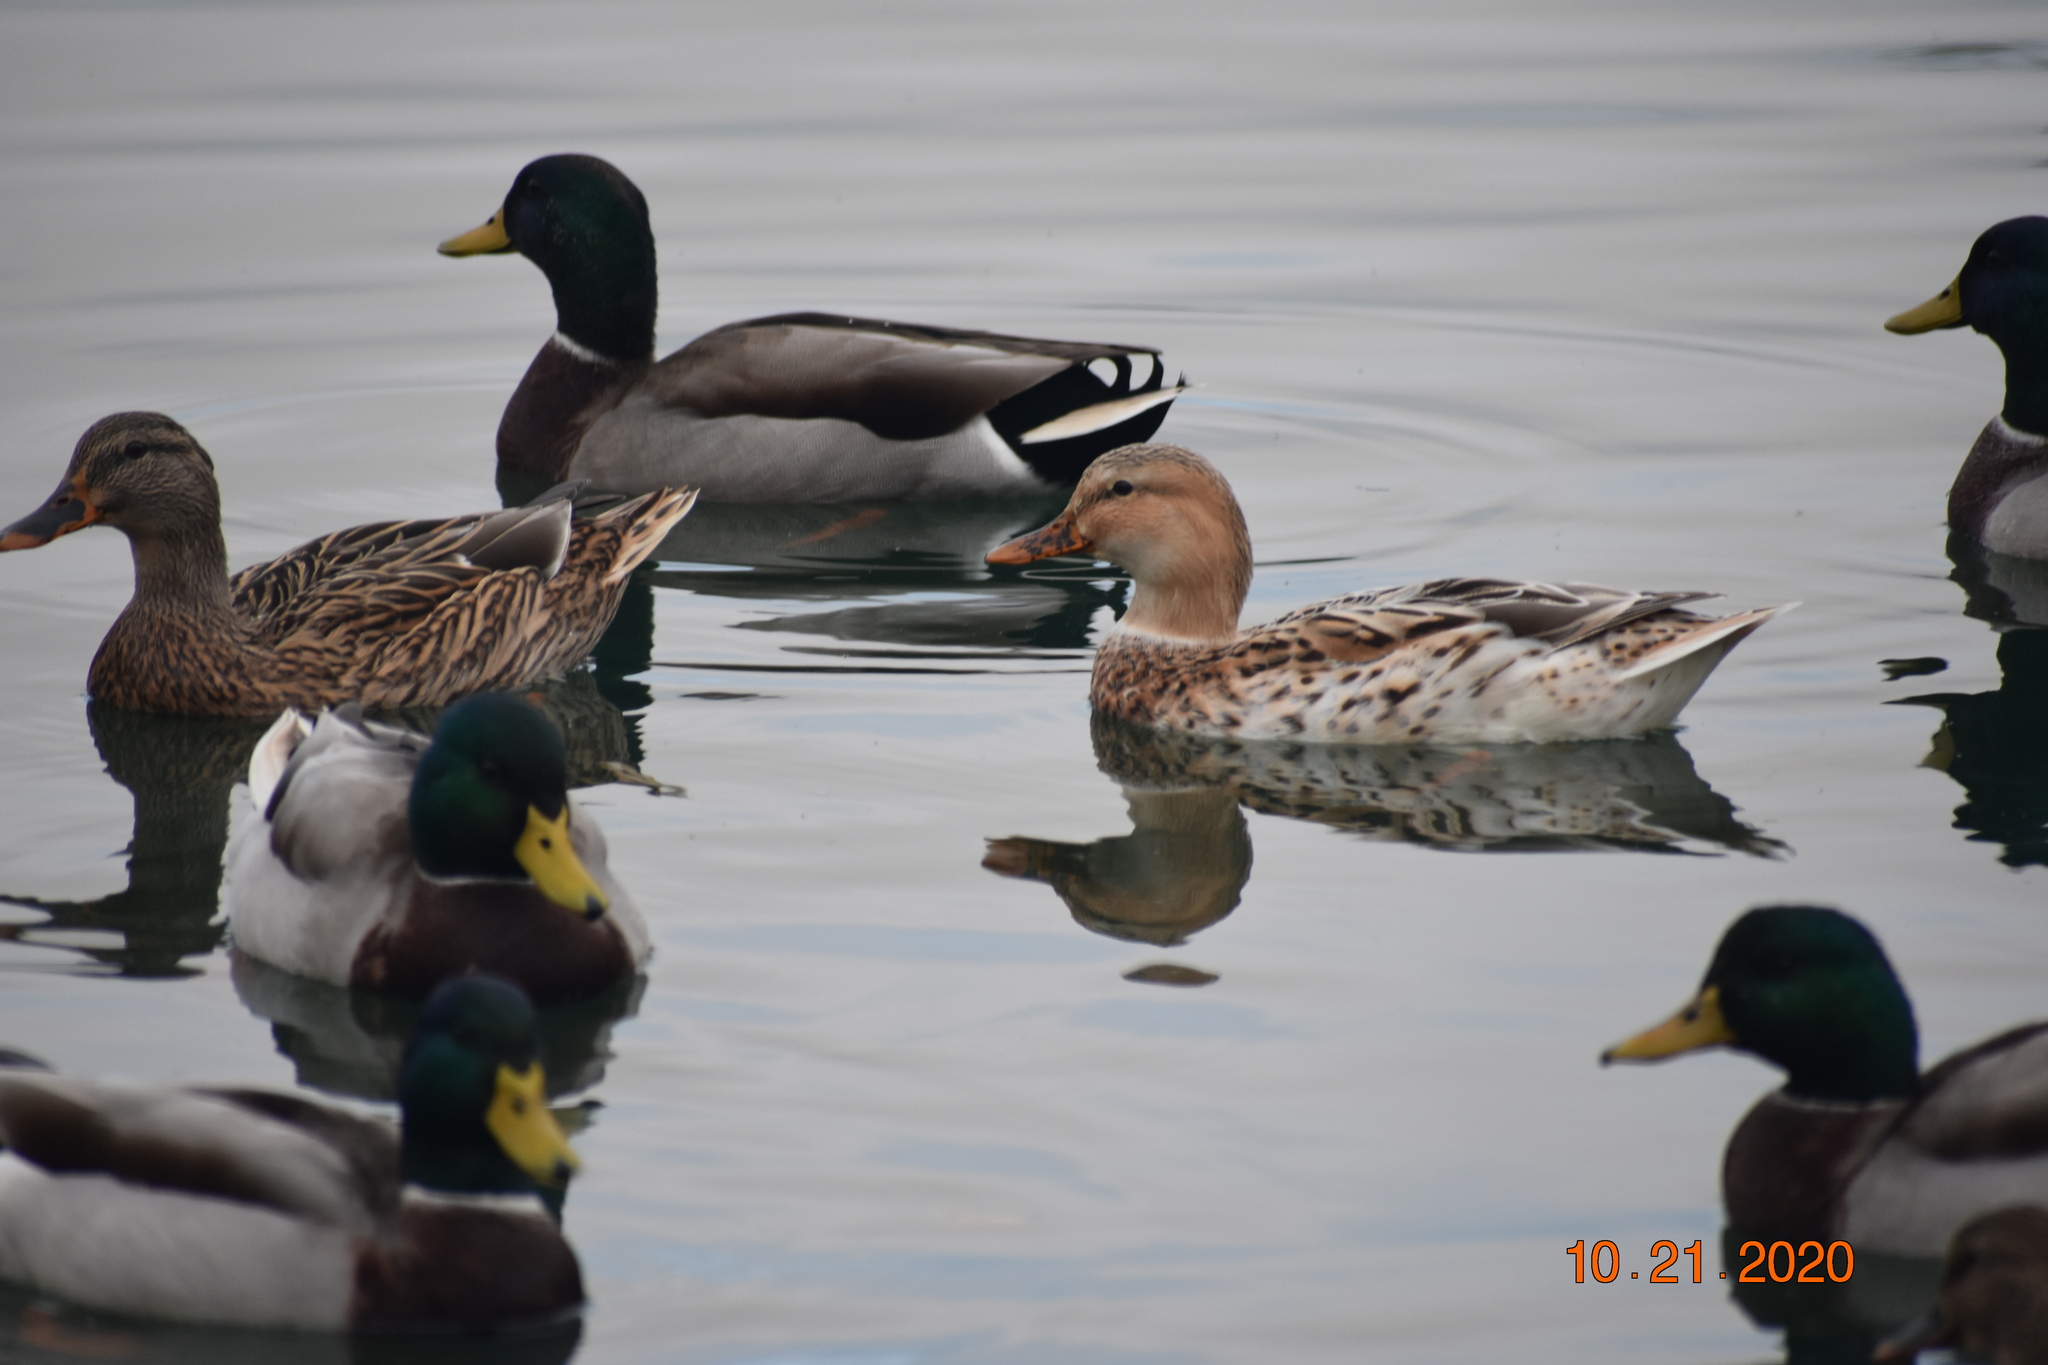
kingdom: Animalia
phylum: Chordata
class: Aves
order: Anseriformes
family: Anatidae
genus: Anas
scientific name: Anas platyrhynchos
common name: Mallard
